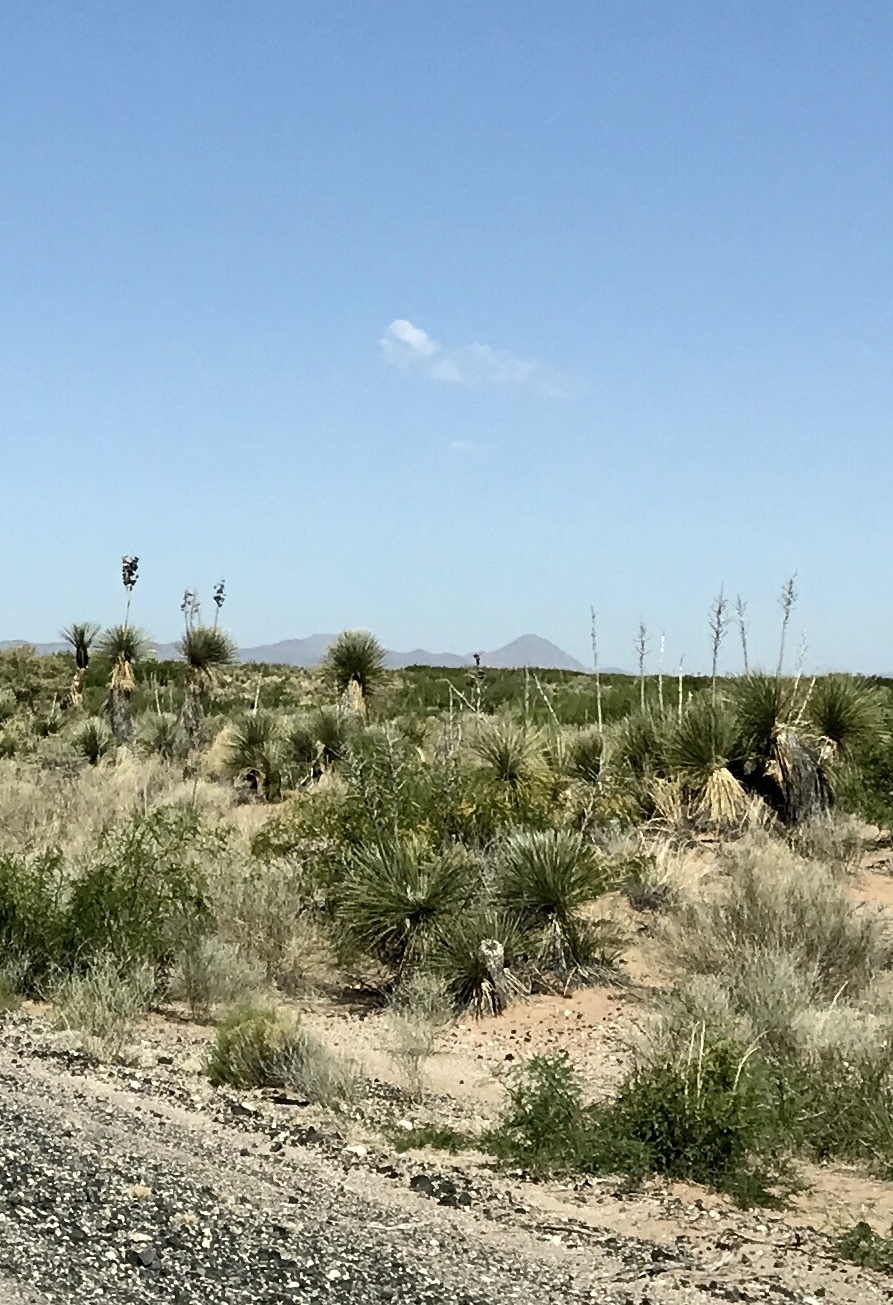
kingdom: Plantae
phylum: Tracheophyta
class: Liliopsida
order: Asparagales
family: Asparagaceae
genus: Yucca
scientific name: Yucca elata
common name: Palmella
